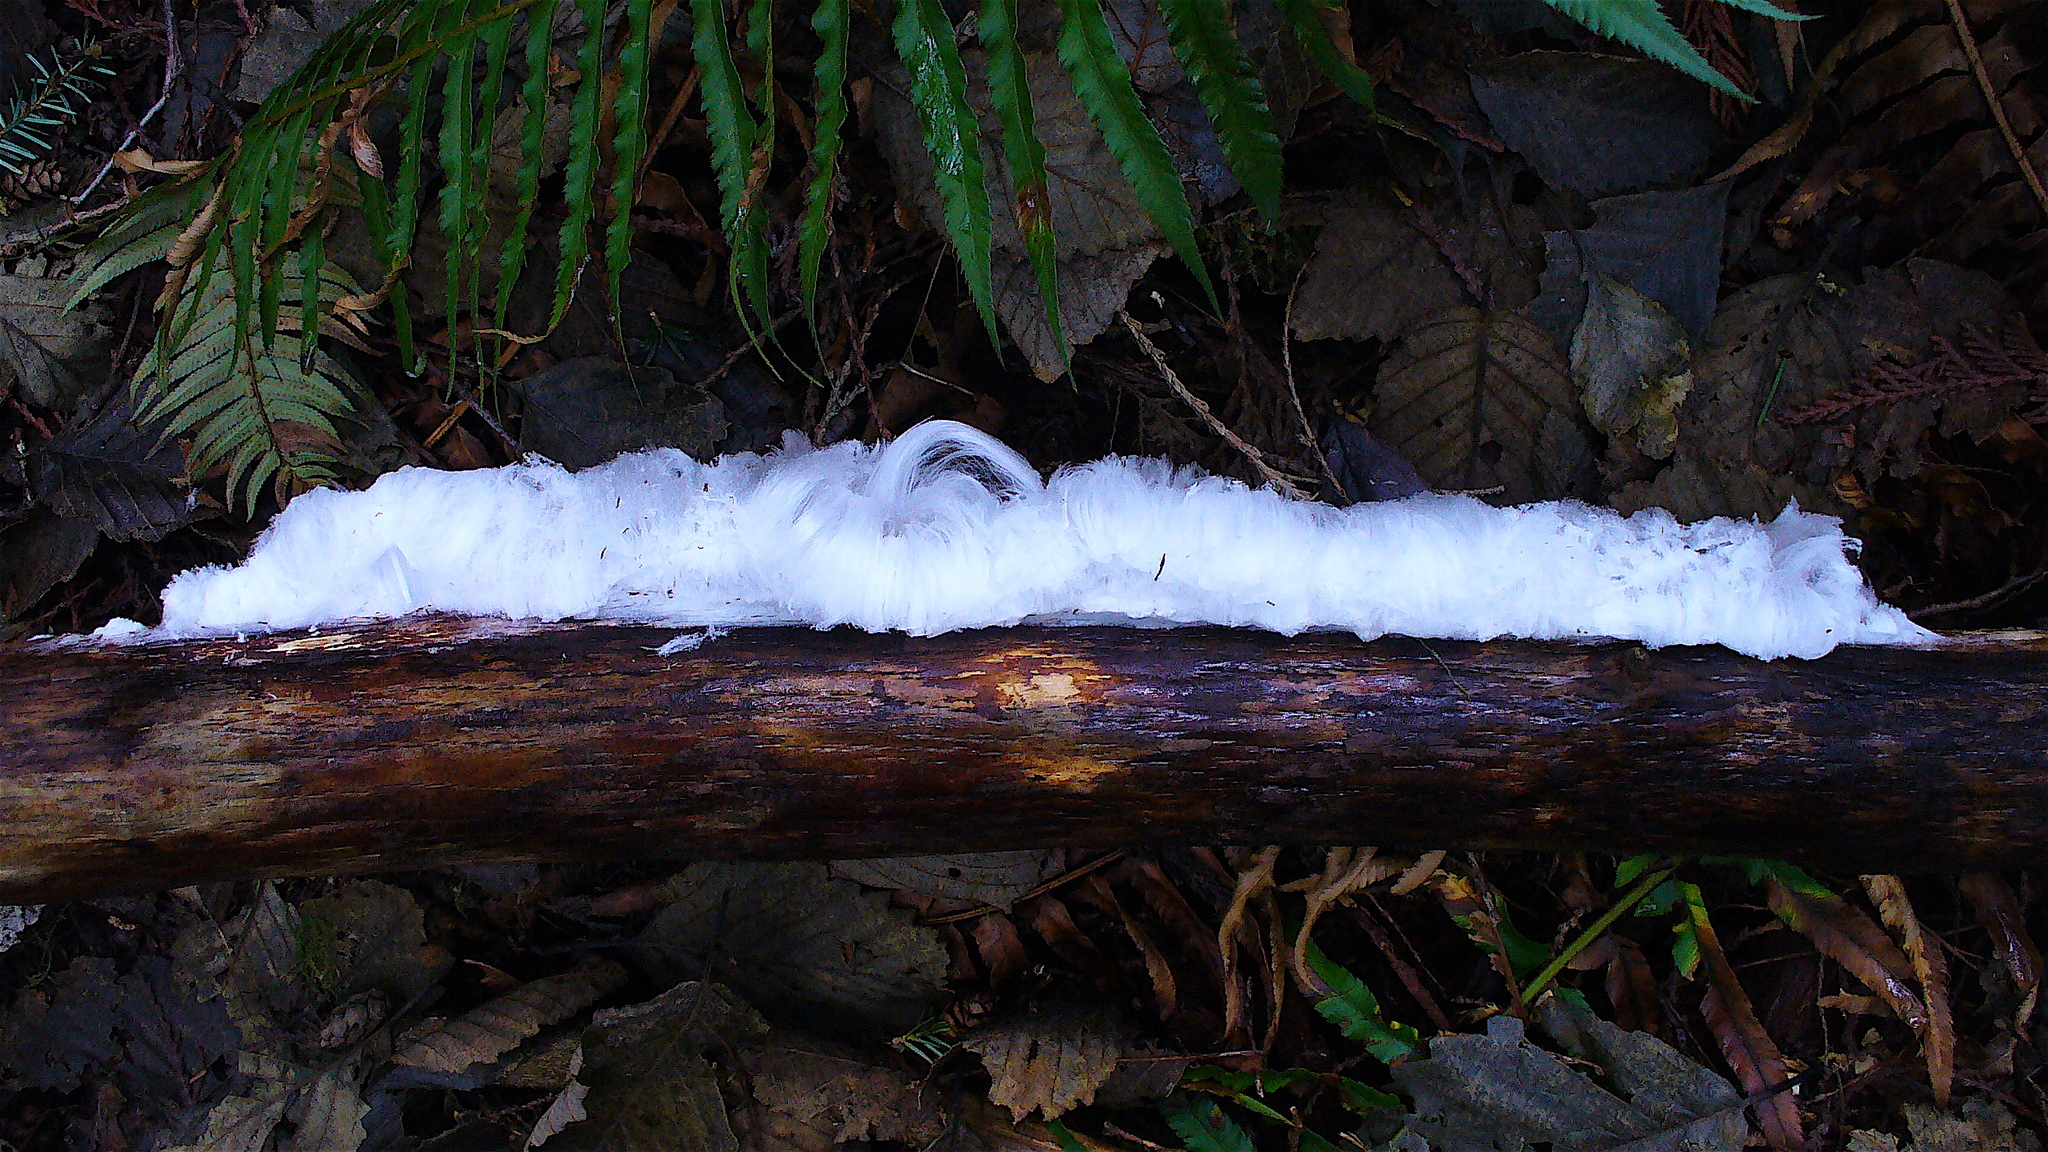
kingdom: Fungi
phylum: Basidiomycota
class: Agaricomycetes
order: Auriculariales
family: Auriculariaceae
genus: Exidiopsis
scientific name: Exidiopsis effusa
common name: Hair ice crust
